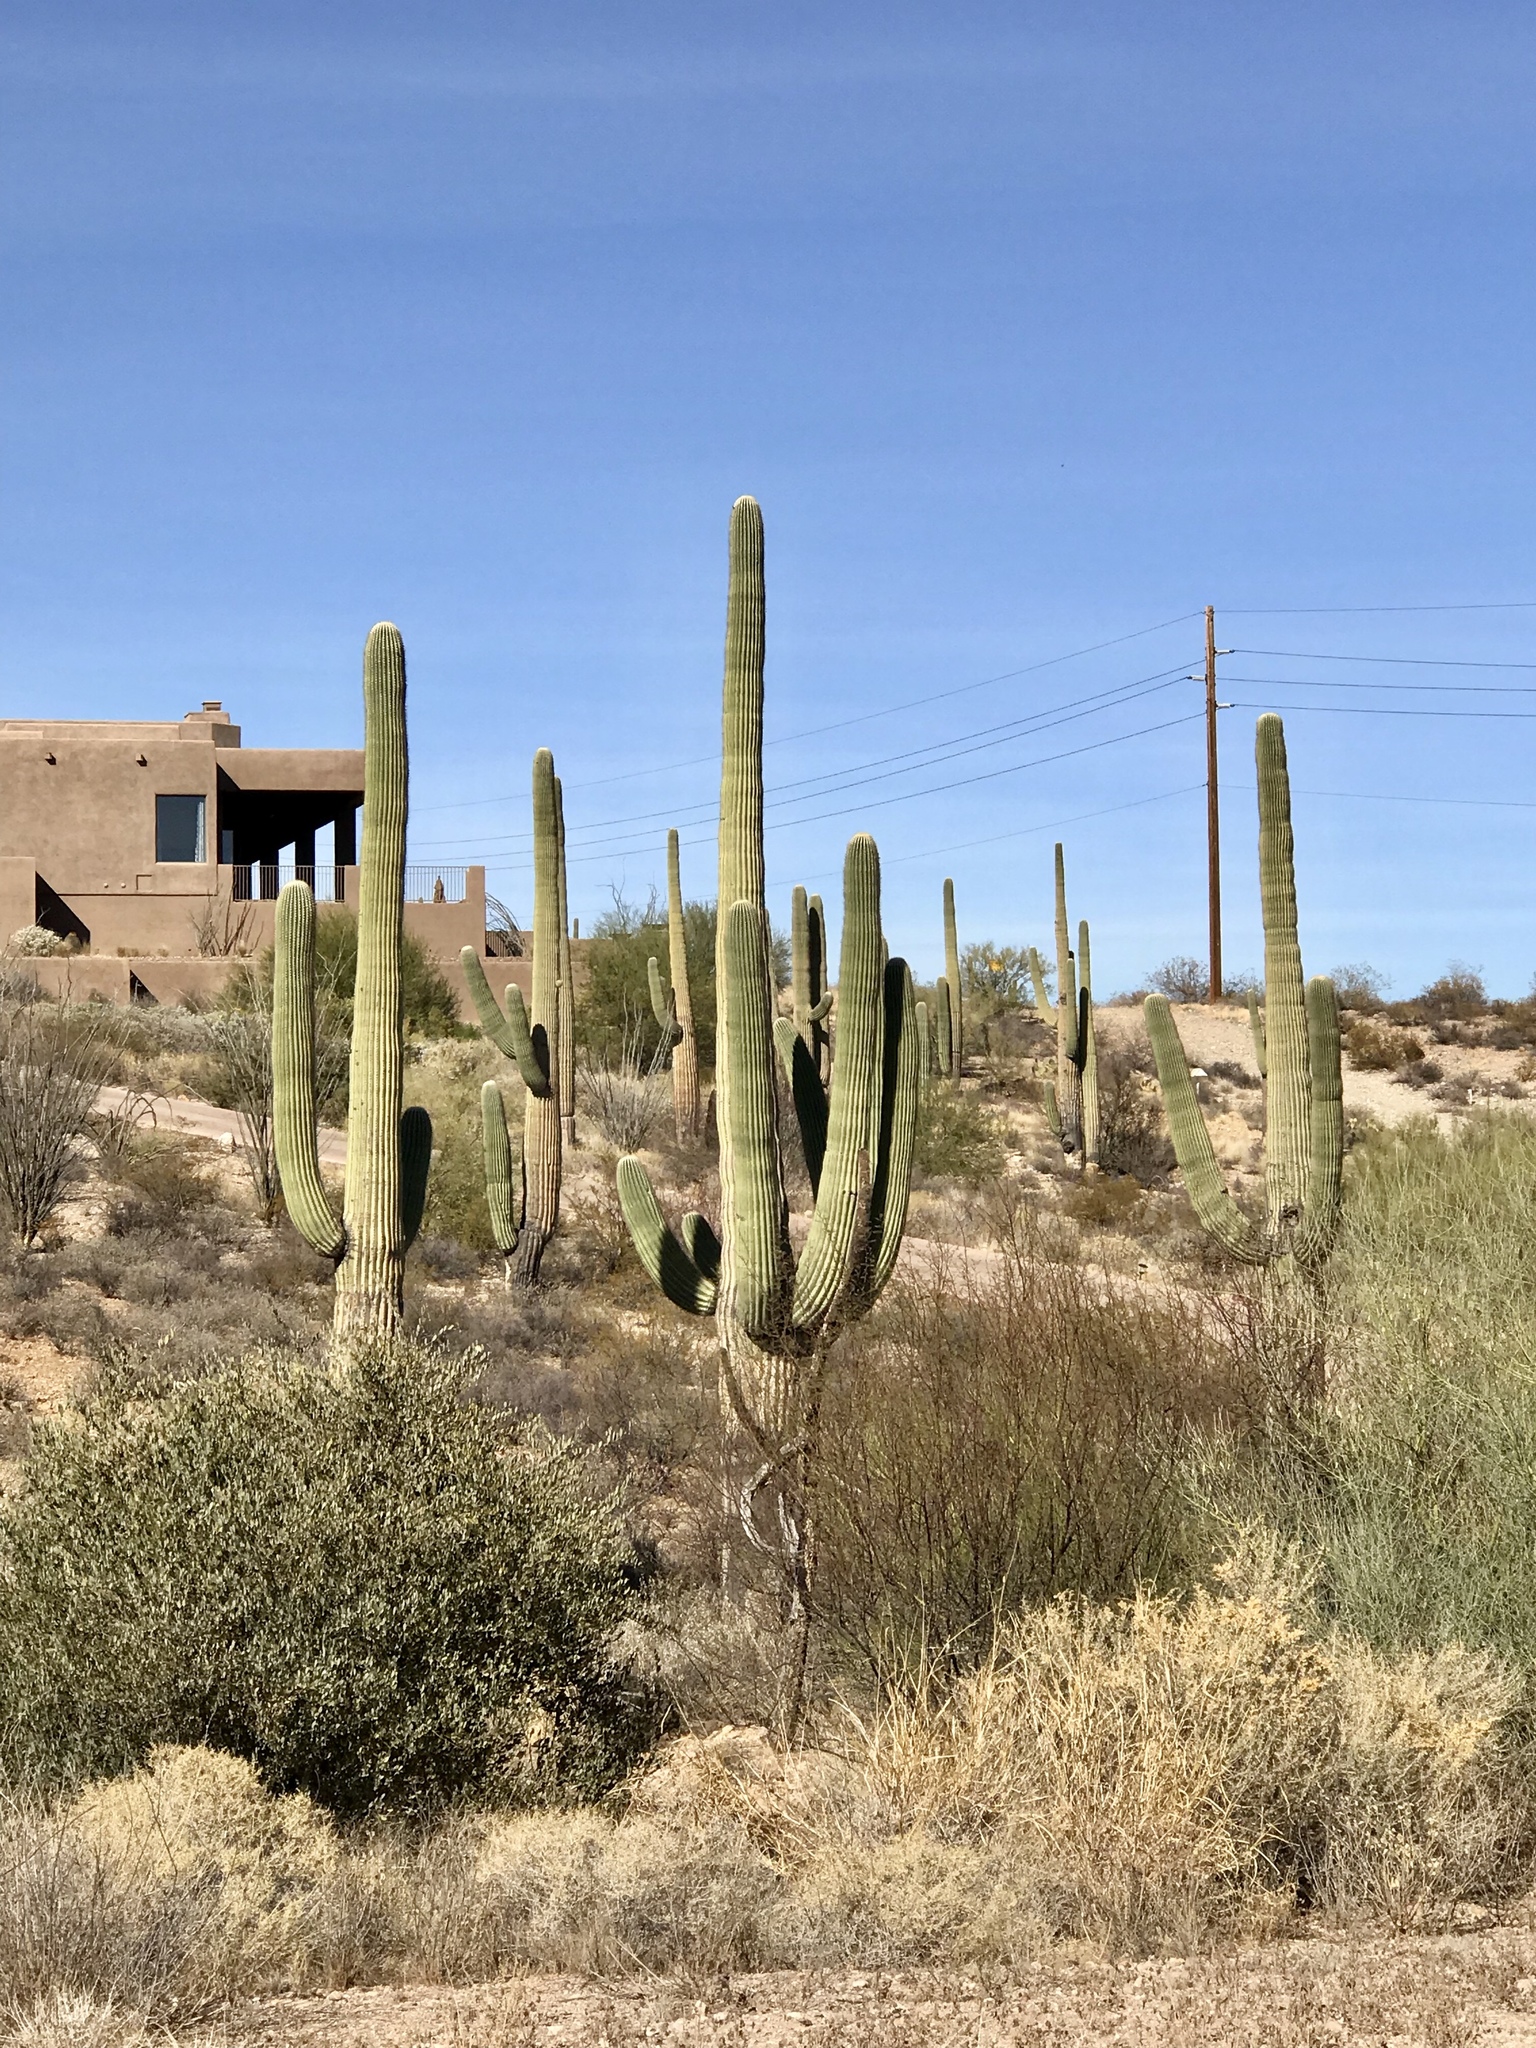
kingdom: Plantae
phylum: Tracheophyta
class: Magnoliopsida
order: Caryophyllales
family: Cactaceae
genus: Carnegiea
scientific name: Carnegiea gigantea
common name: Saguaro
